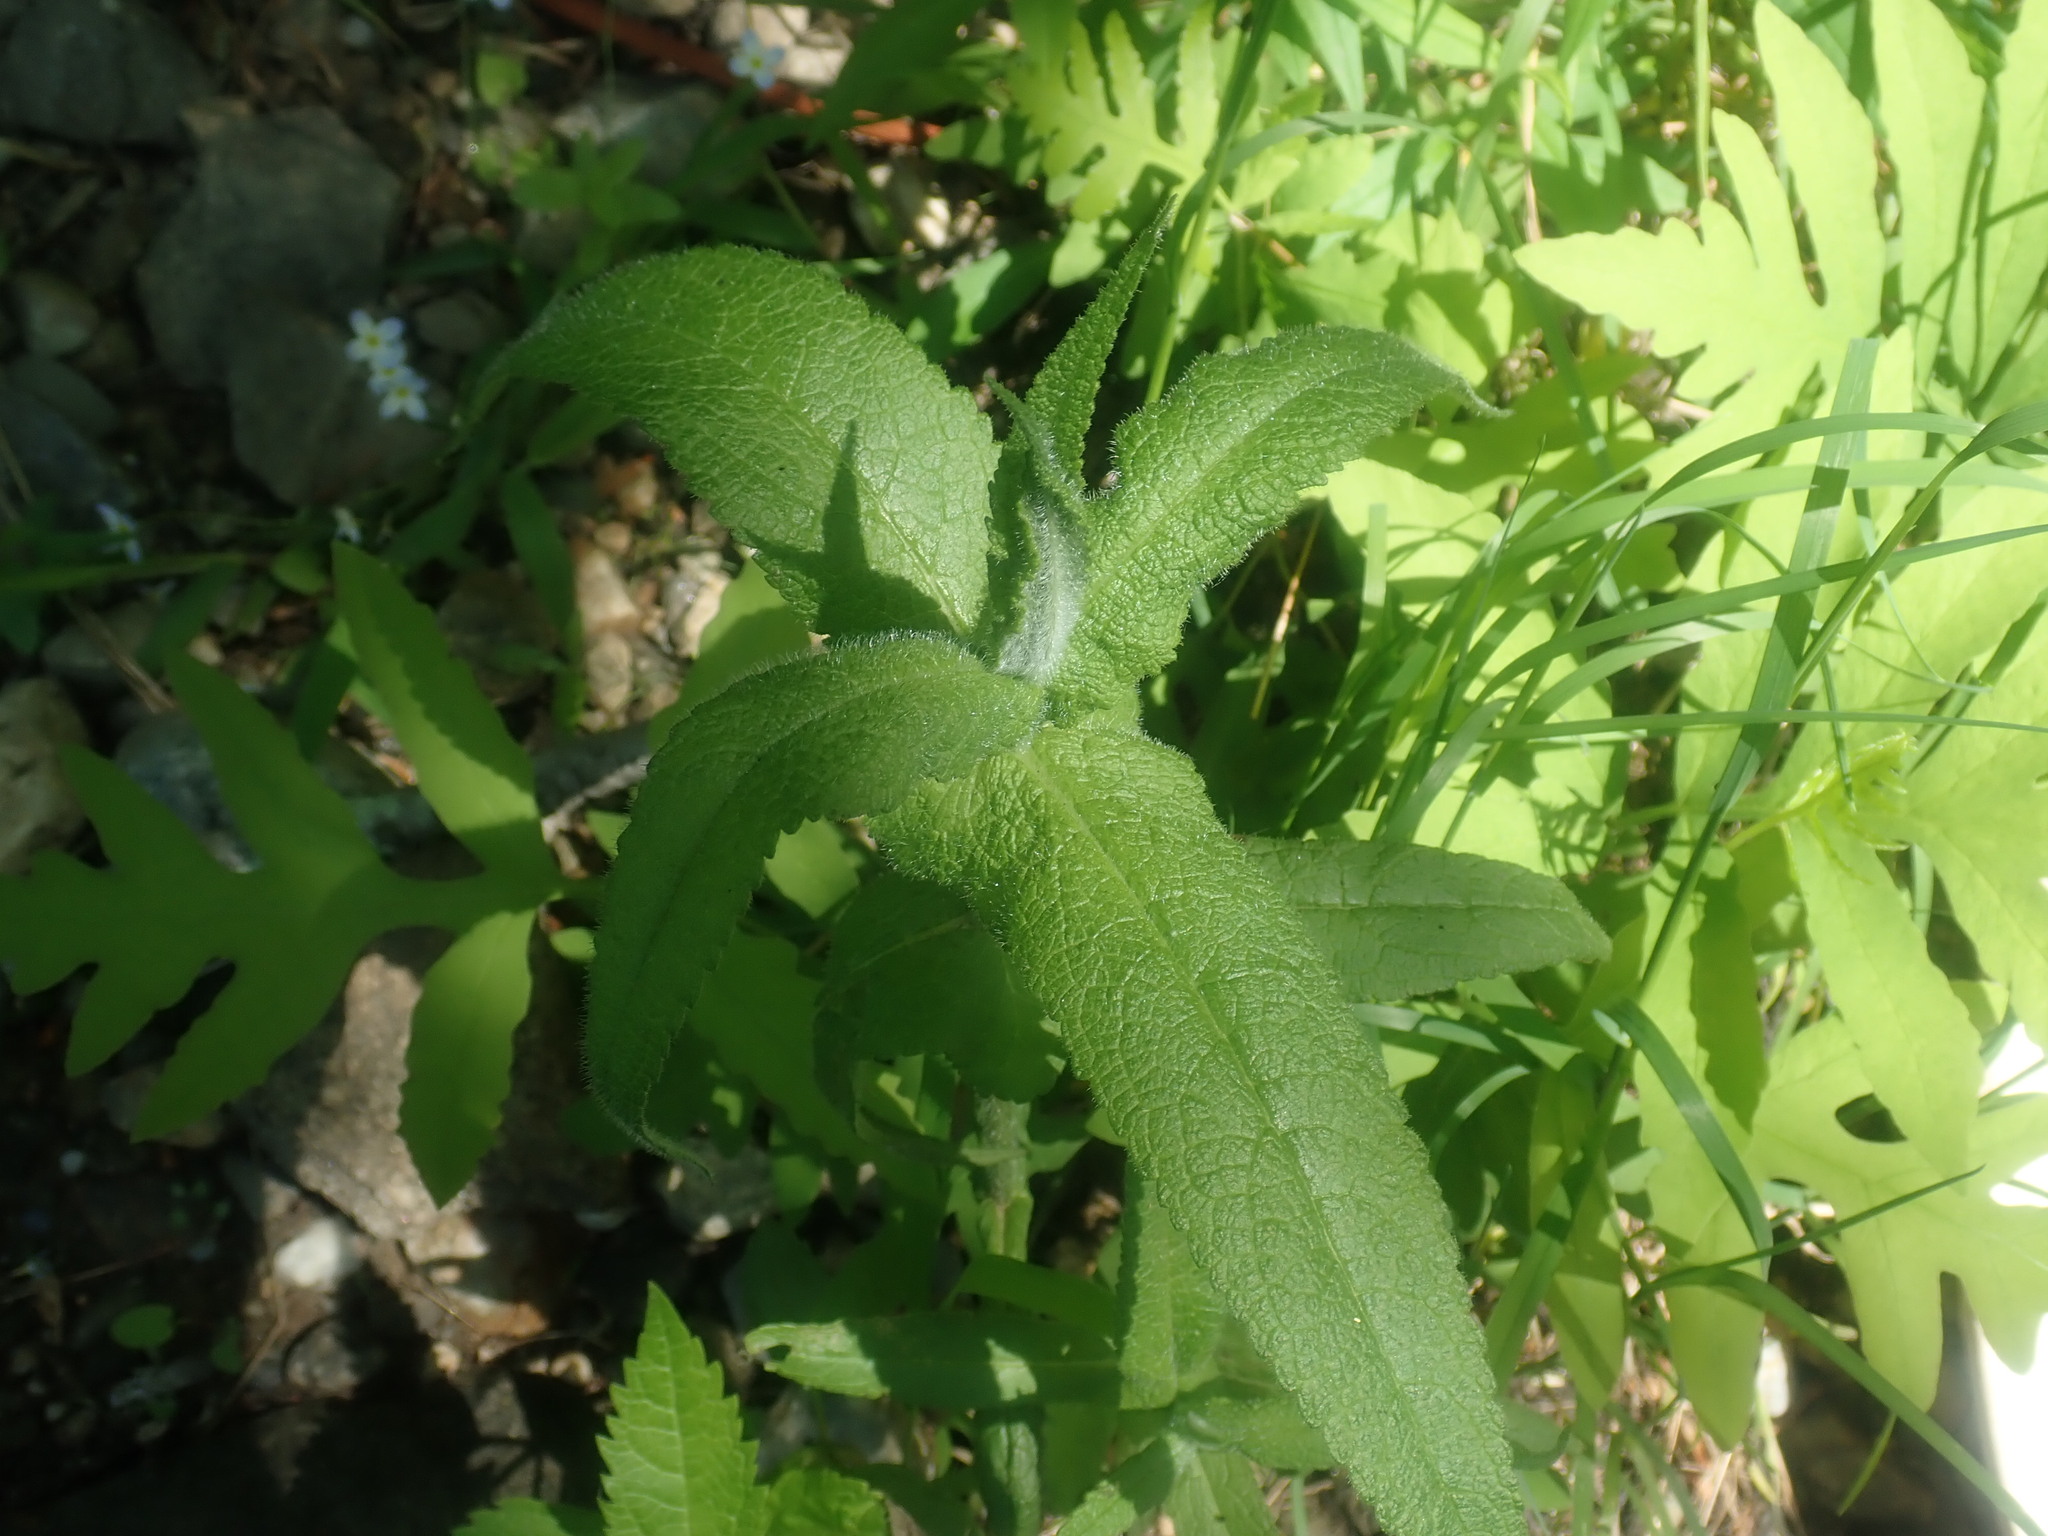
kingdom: Plantae
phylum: Tracheophyta
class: Magnoliopsida
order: Asterales
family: Asteraceae
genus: Eupatorium
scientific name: Eupatorium perfoliatum
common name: Boneset
